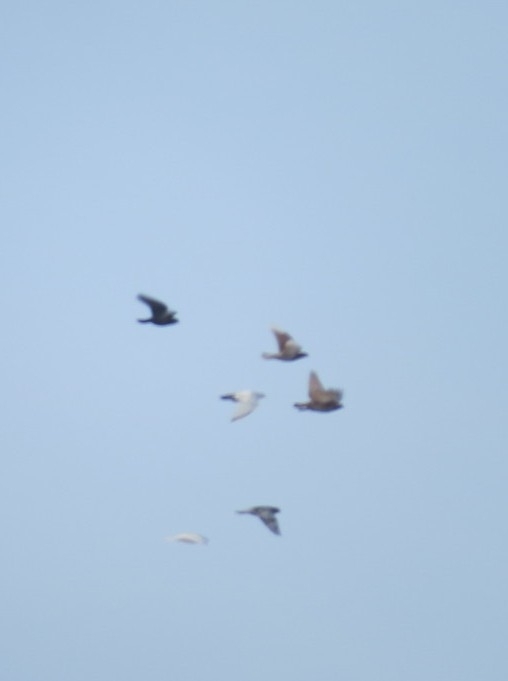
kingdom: Animalia
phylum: Chordata
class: Aves
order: Columbiformes
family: Columbidae
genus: Columba
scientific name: Columba livia
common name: Rock pigeon
